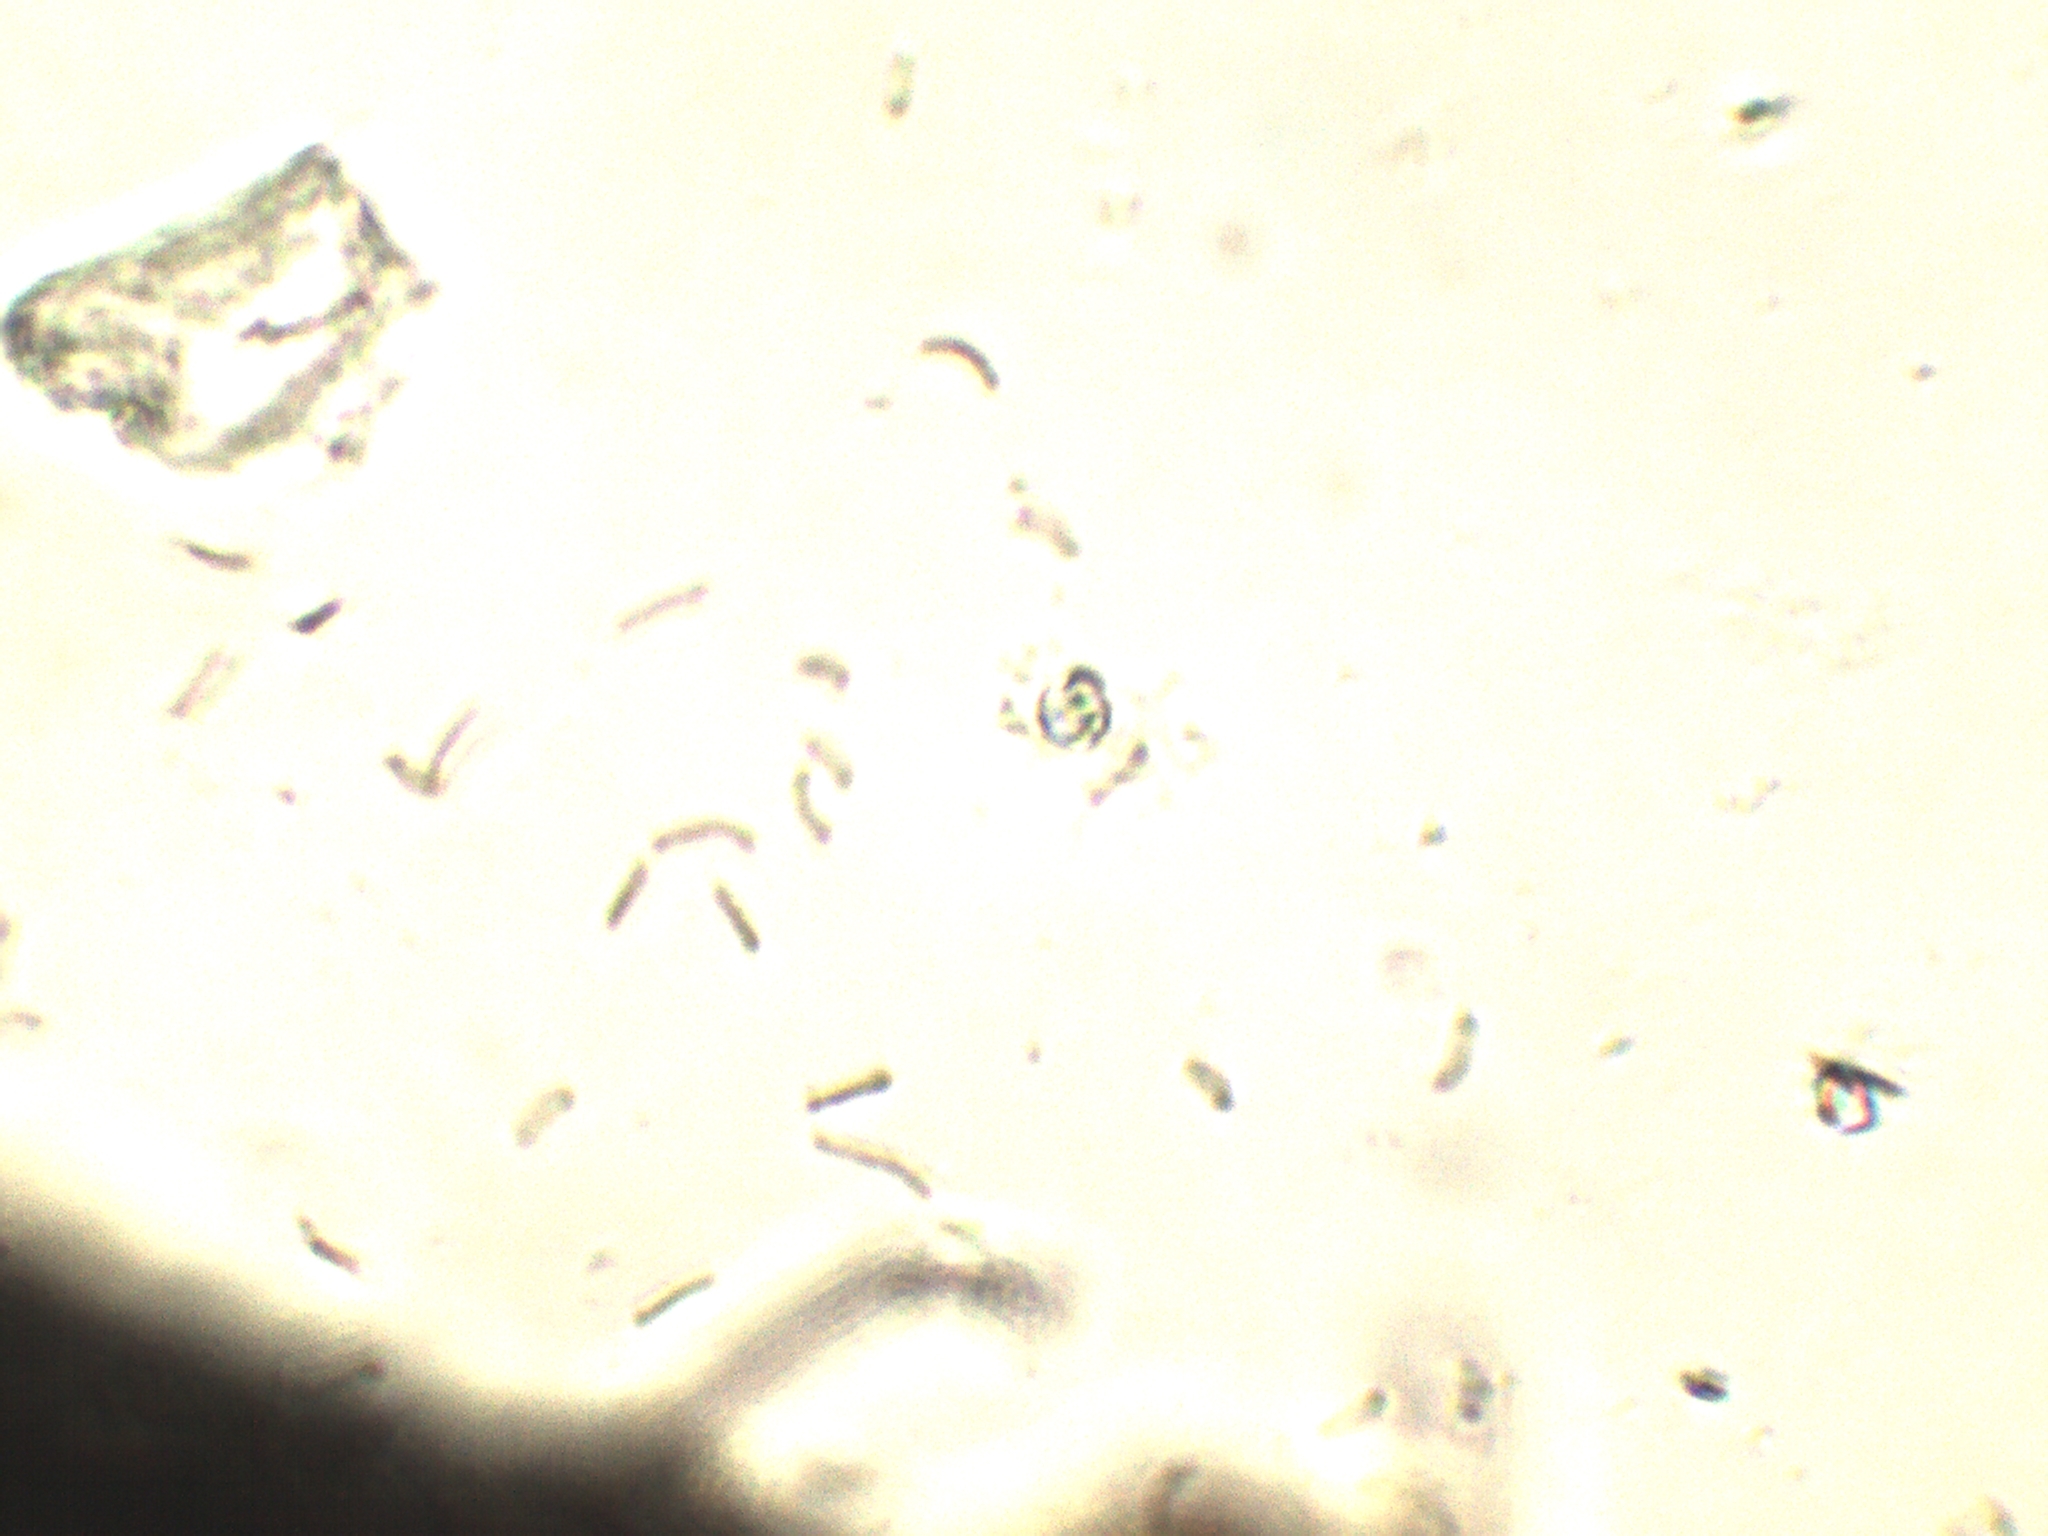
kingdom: Fungi
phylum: Ascomycota
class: Sordariomycetes
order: Xylariales
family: Diatrypaceae
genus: Diatrype
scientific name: Diatrype stigma
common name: Common tarcrust
